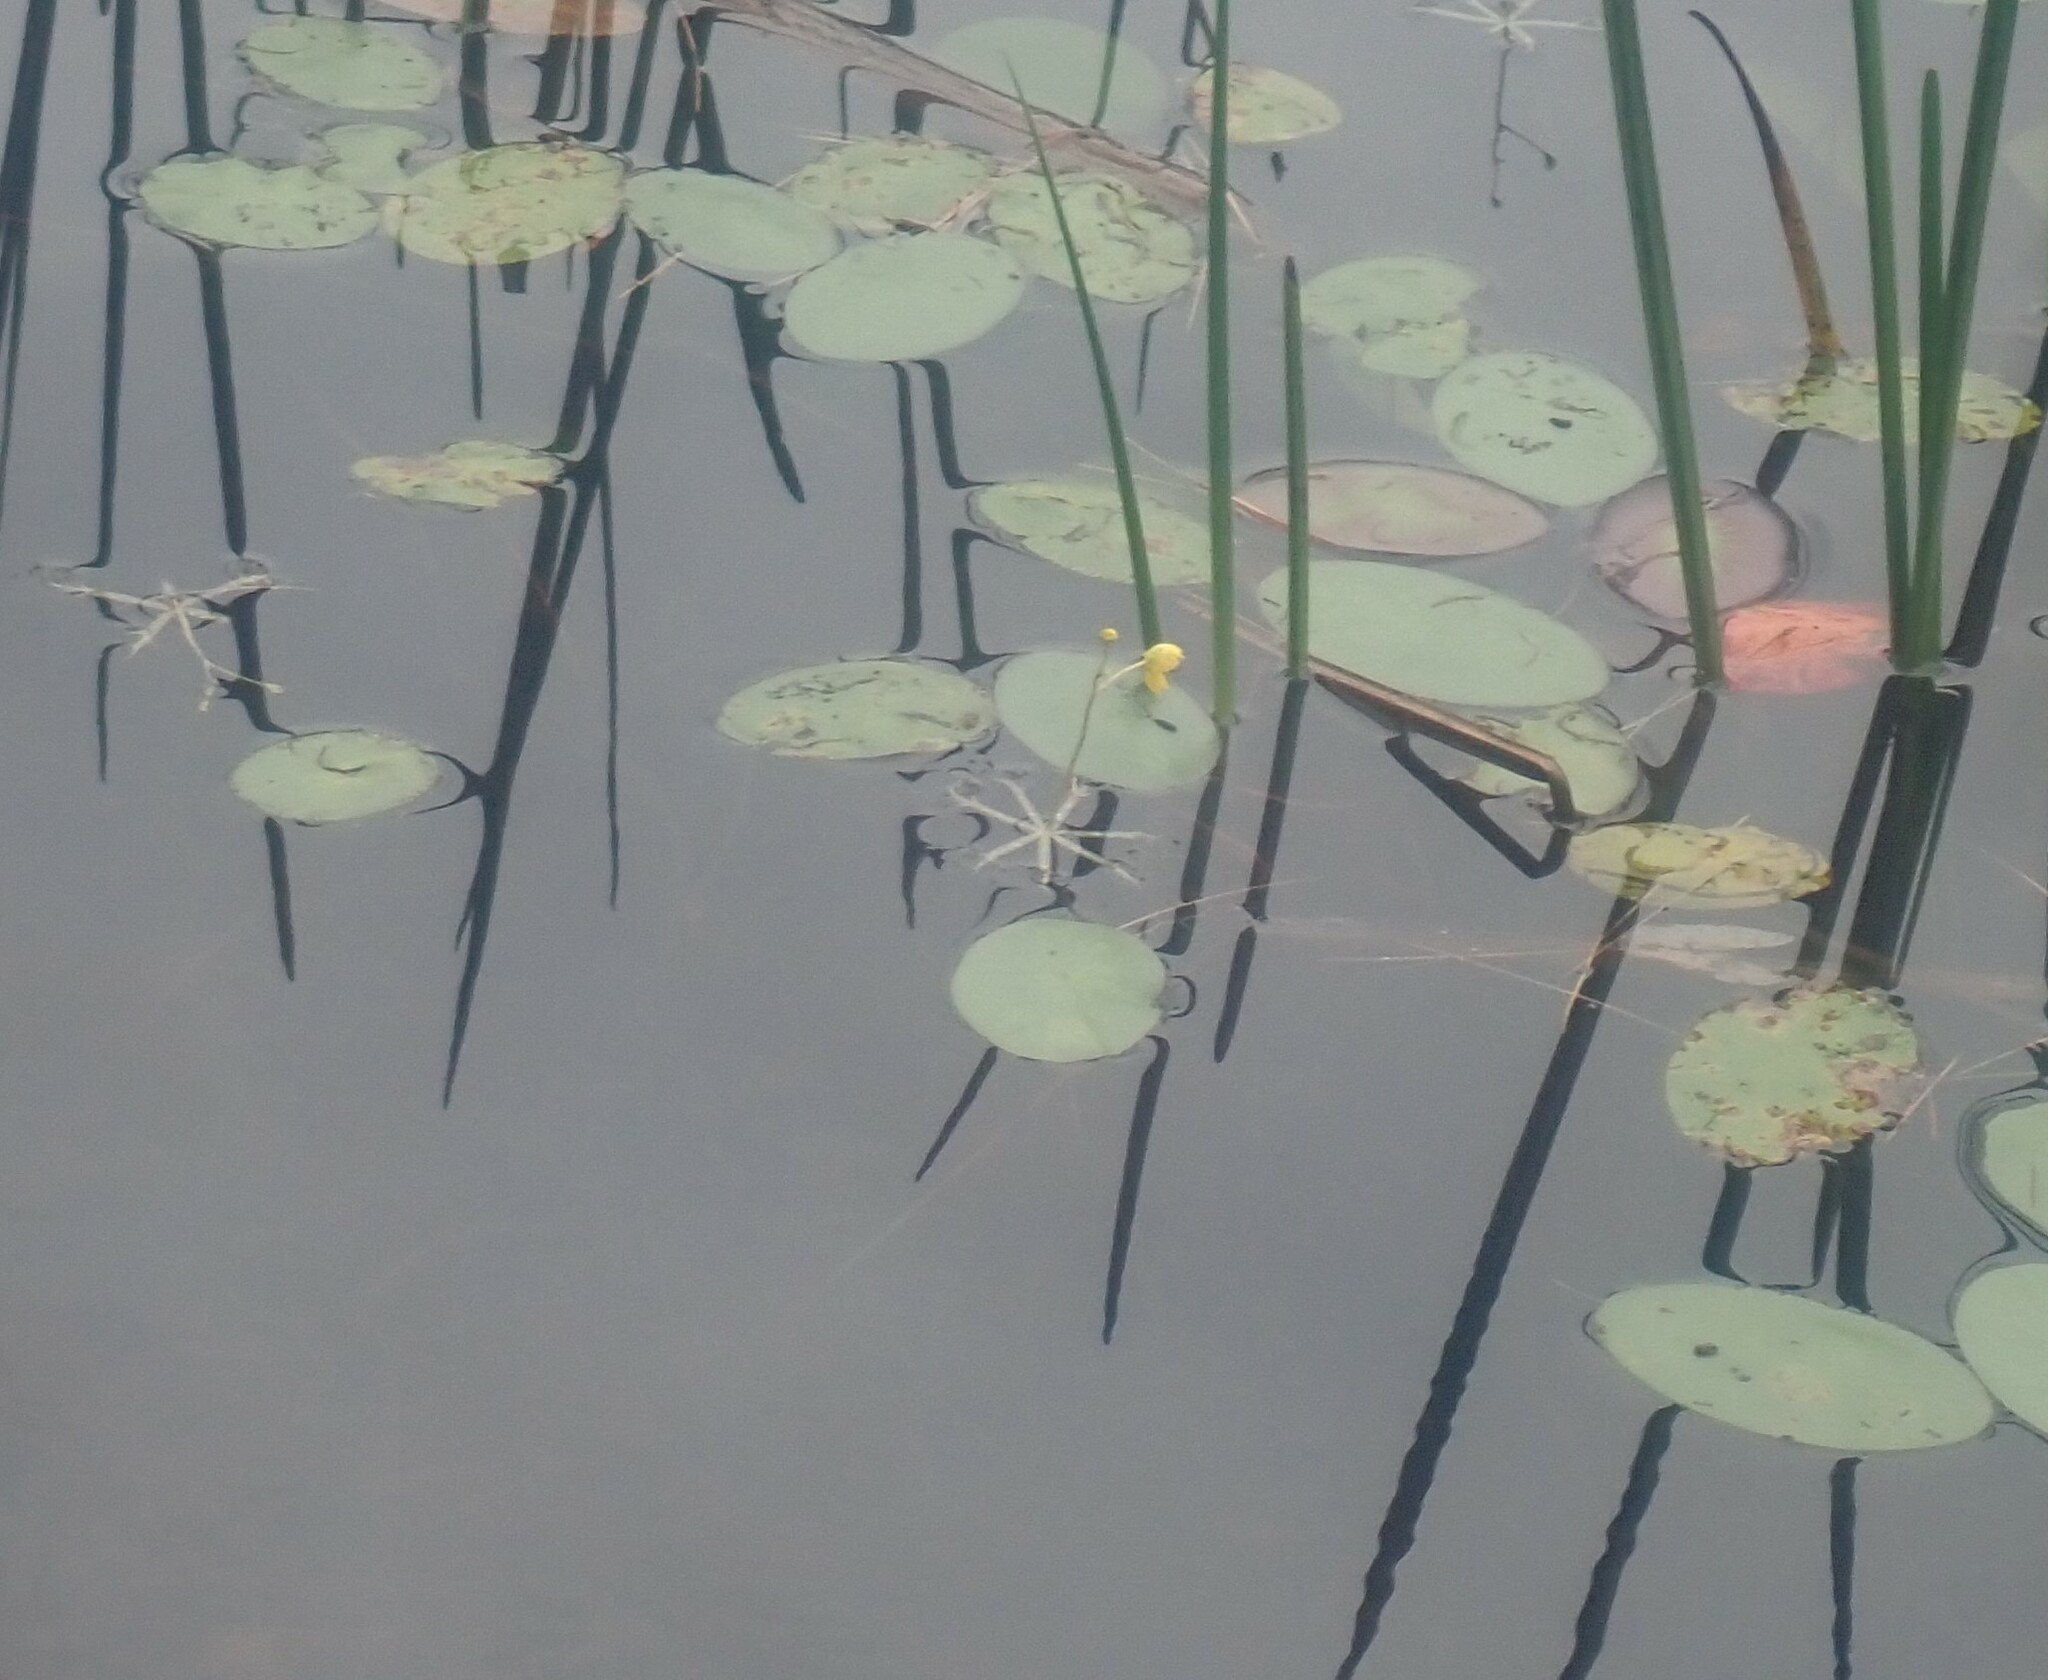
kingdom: Plantae
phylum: Tracheophyta
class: Magnoliopsida
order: Lamiales
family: Lentibulariaceae
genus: Utricularia
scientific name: Utricularia radiata
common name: Floating bladderwort
